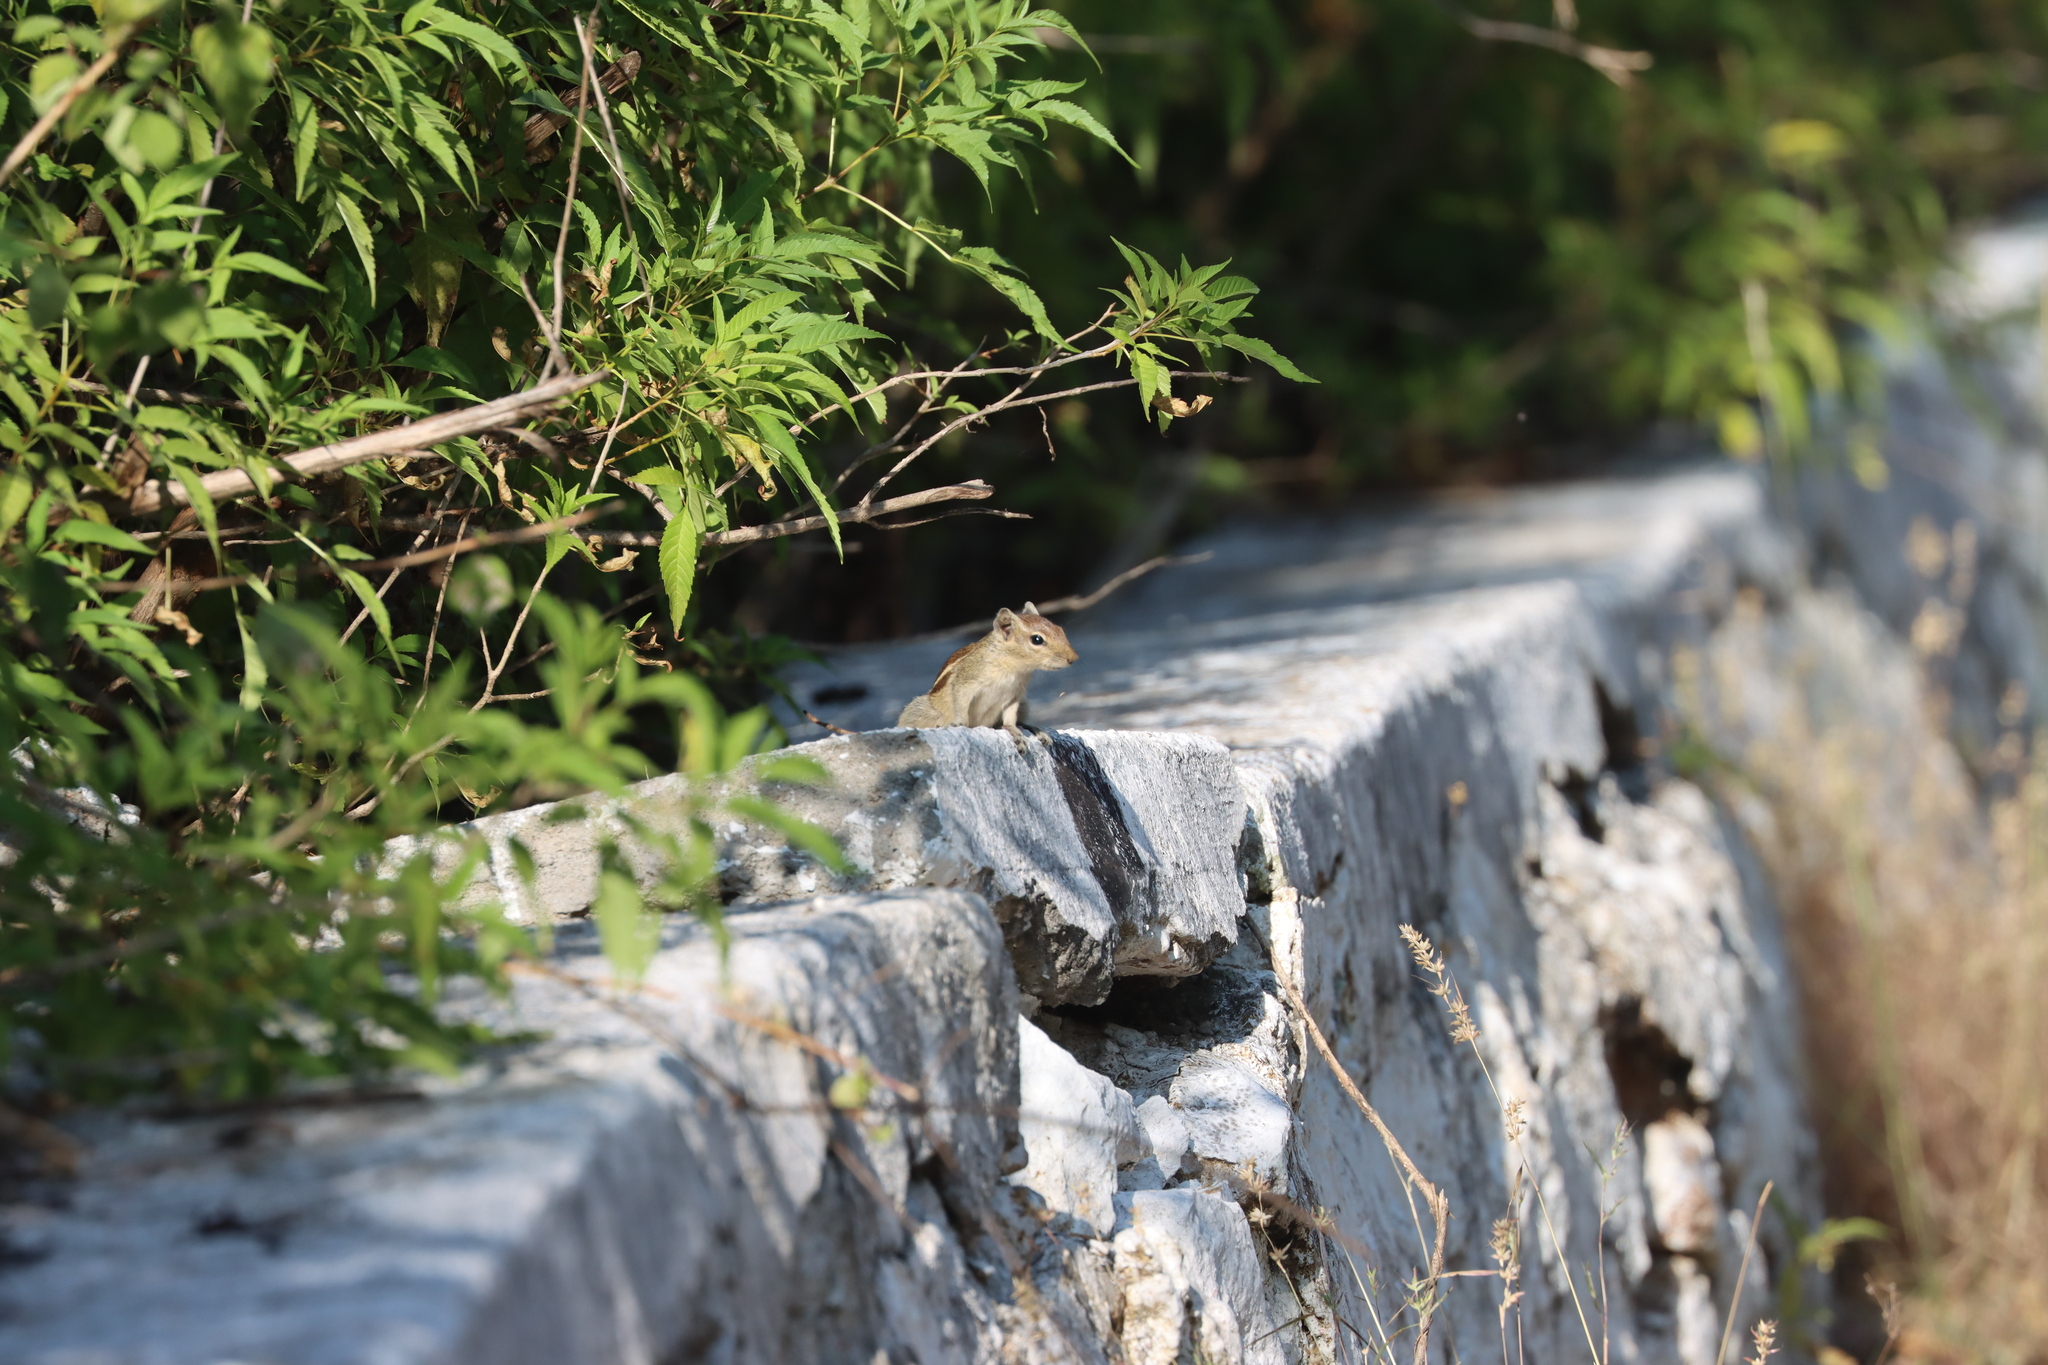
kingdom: Animalia
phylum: Chordata
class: Mammalia
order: Rodentia
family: Sciuridae
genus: Funambulus
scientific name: Funambulus palmarum
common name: Indian palm squirrel
